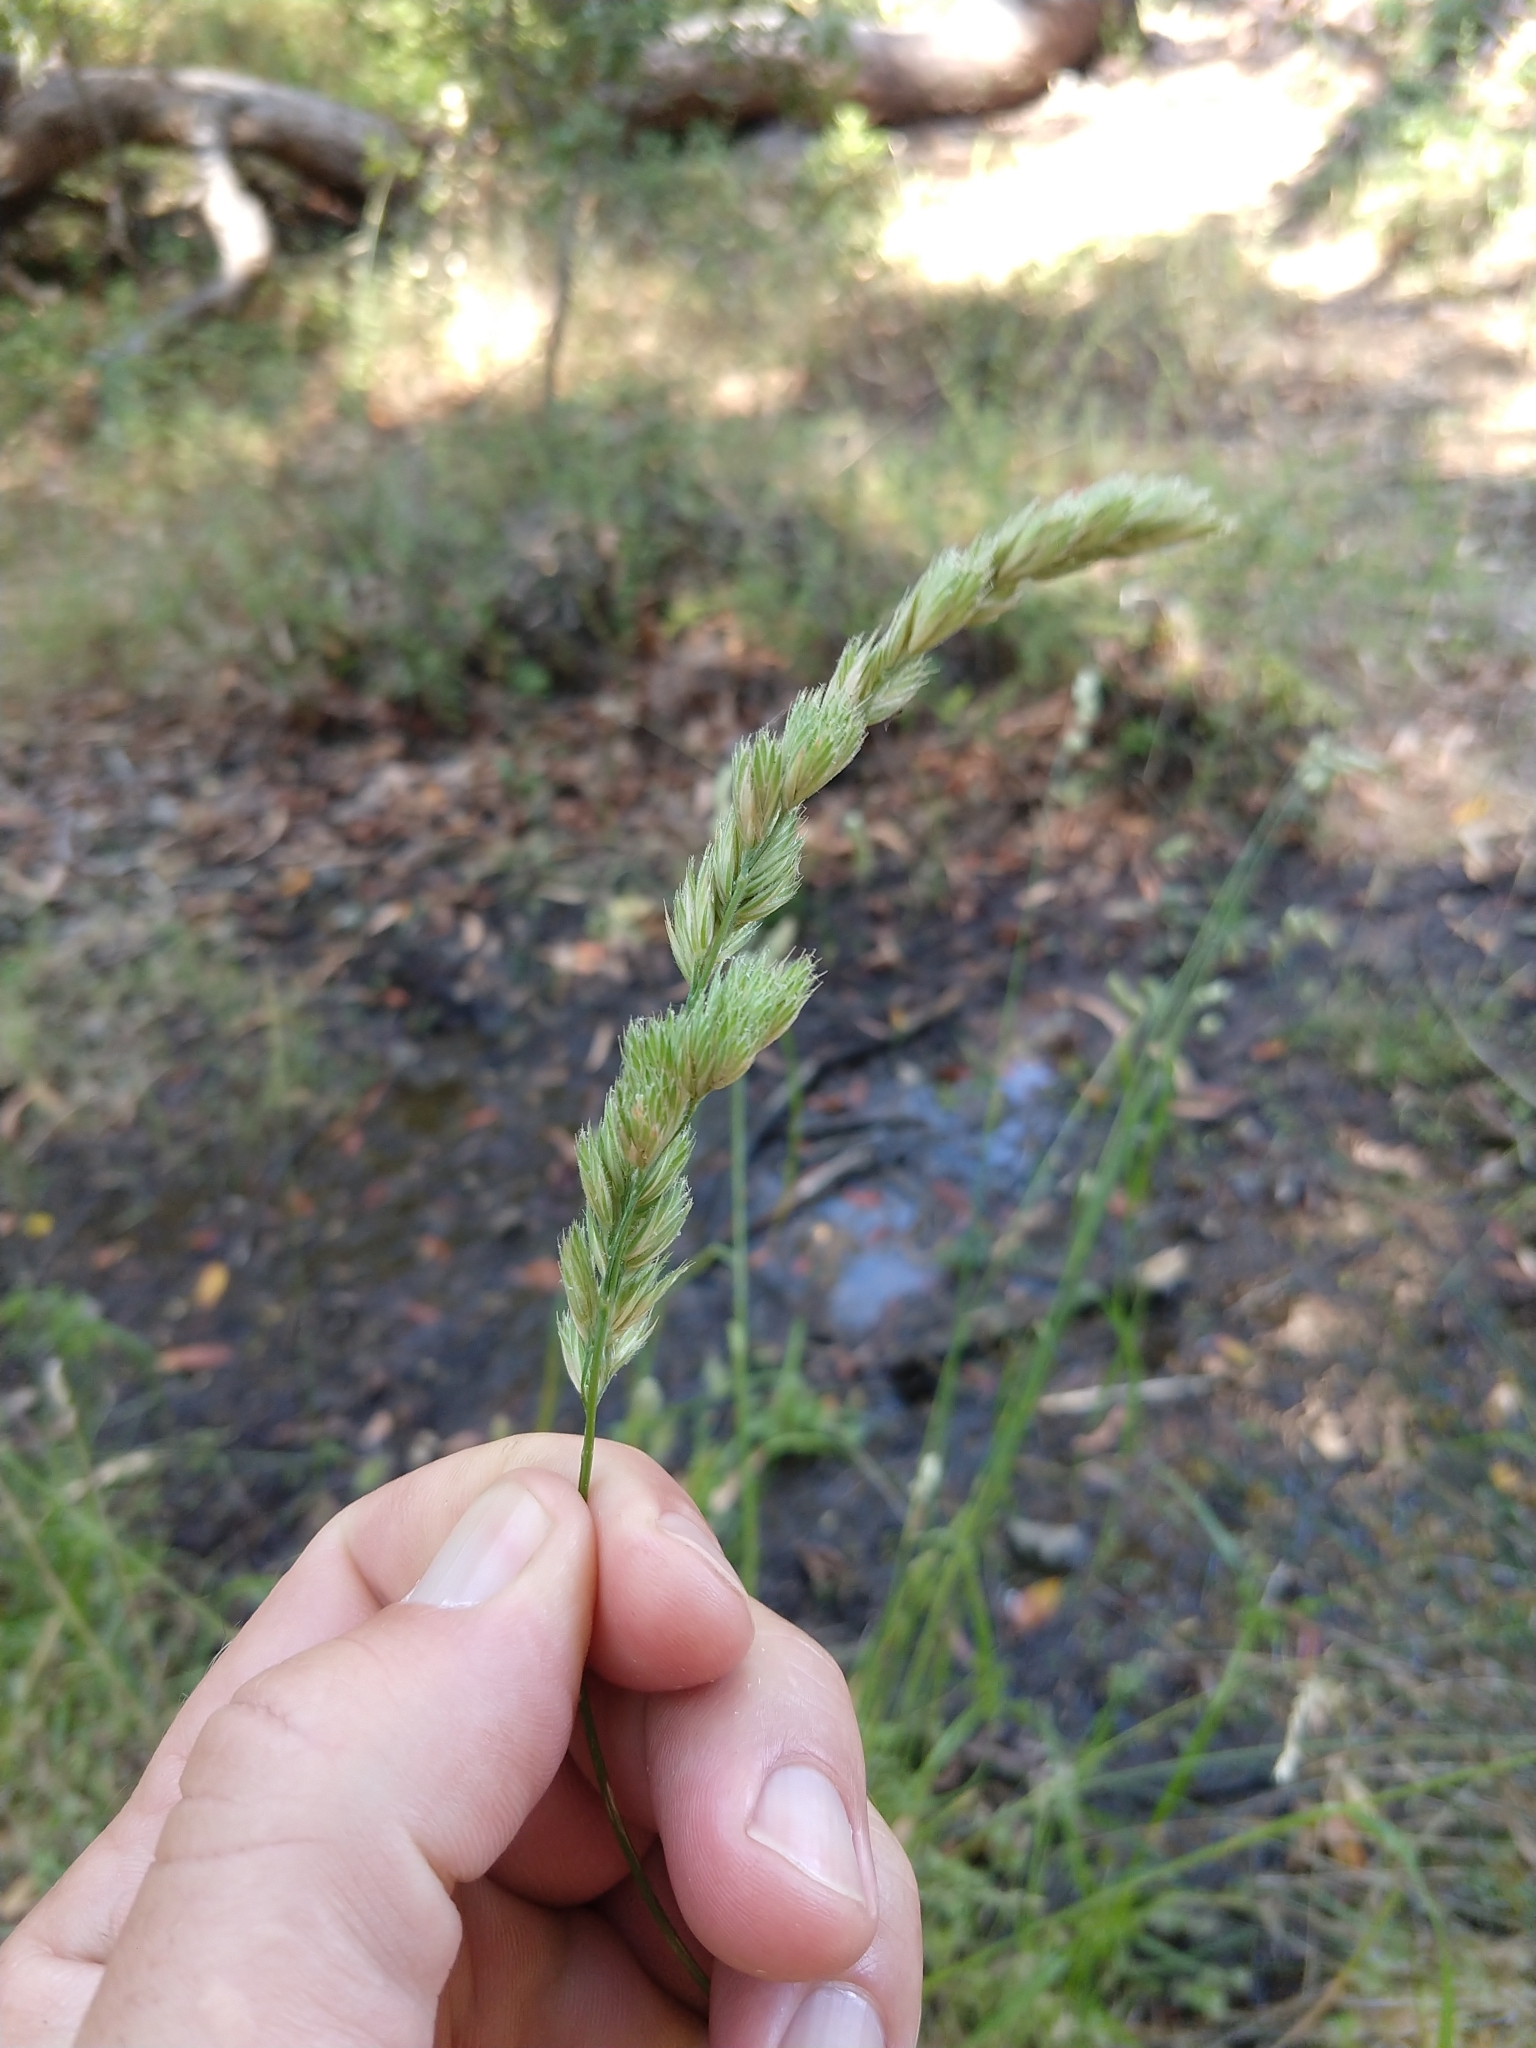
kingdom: Plantae
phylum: Tracheophyta
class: Liliopsida
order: Poales
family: Poaceae
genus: Dactylis
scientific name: Dactylis glomerata
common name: Orchardgrass
